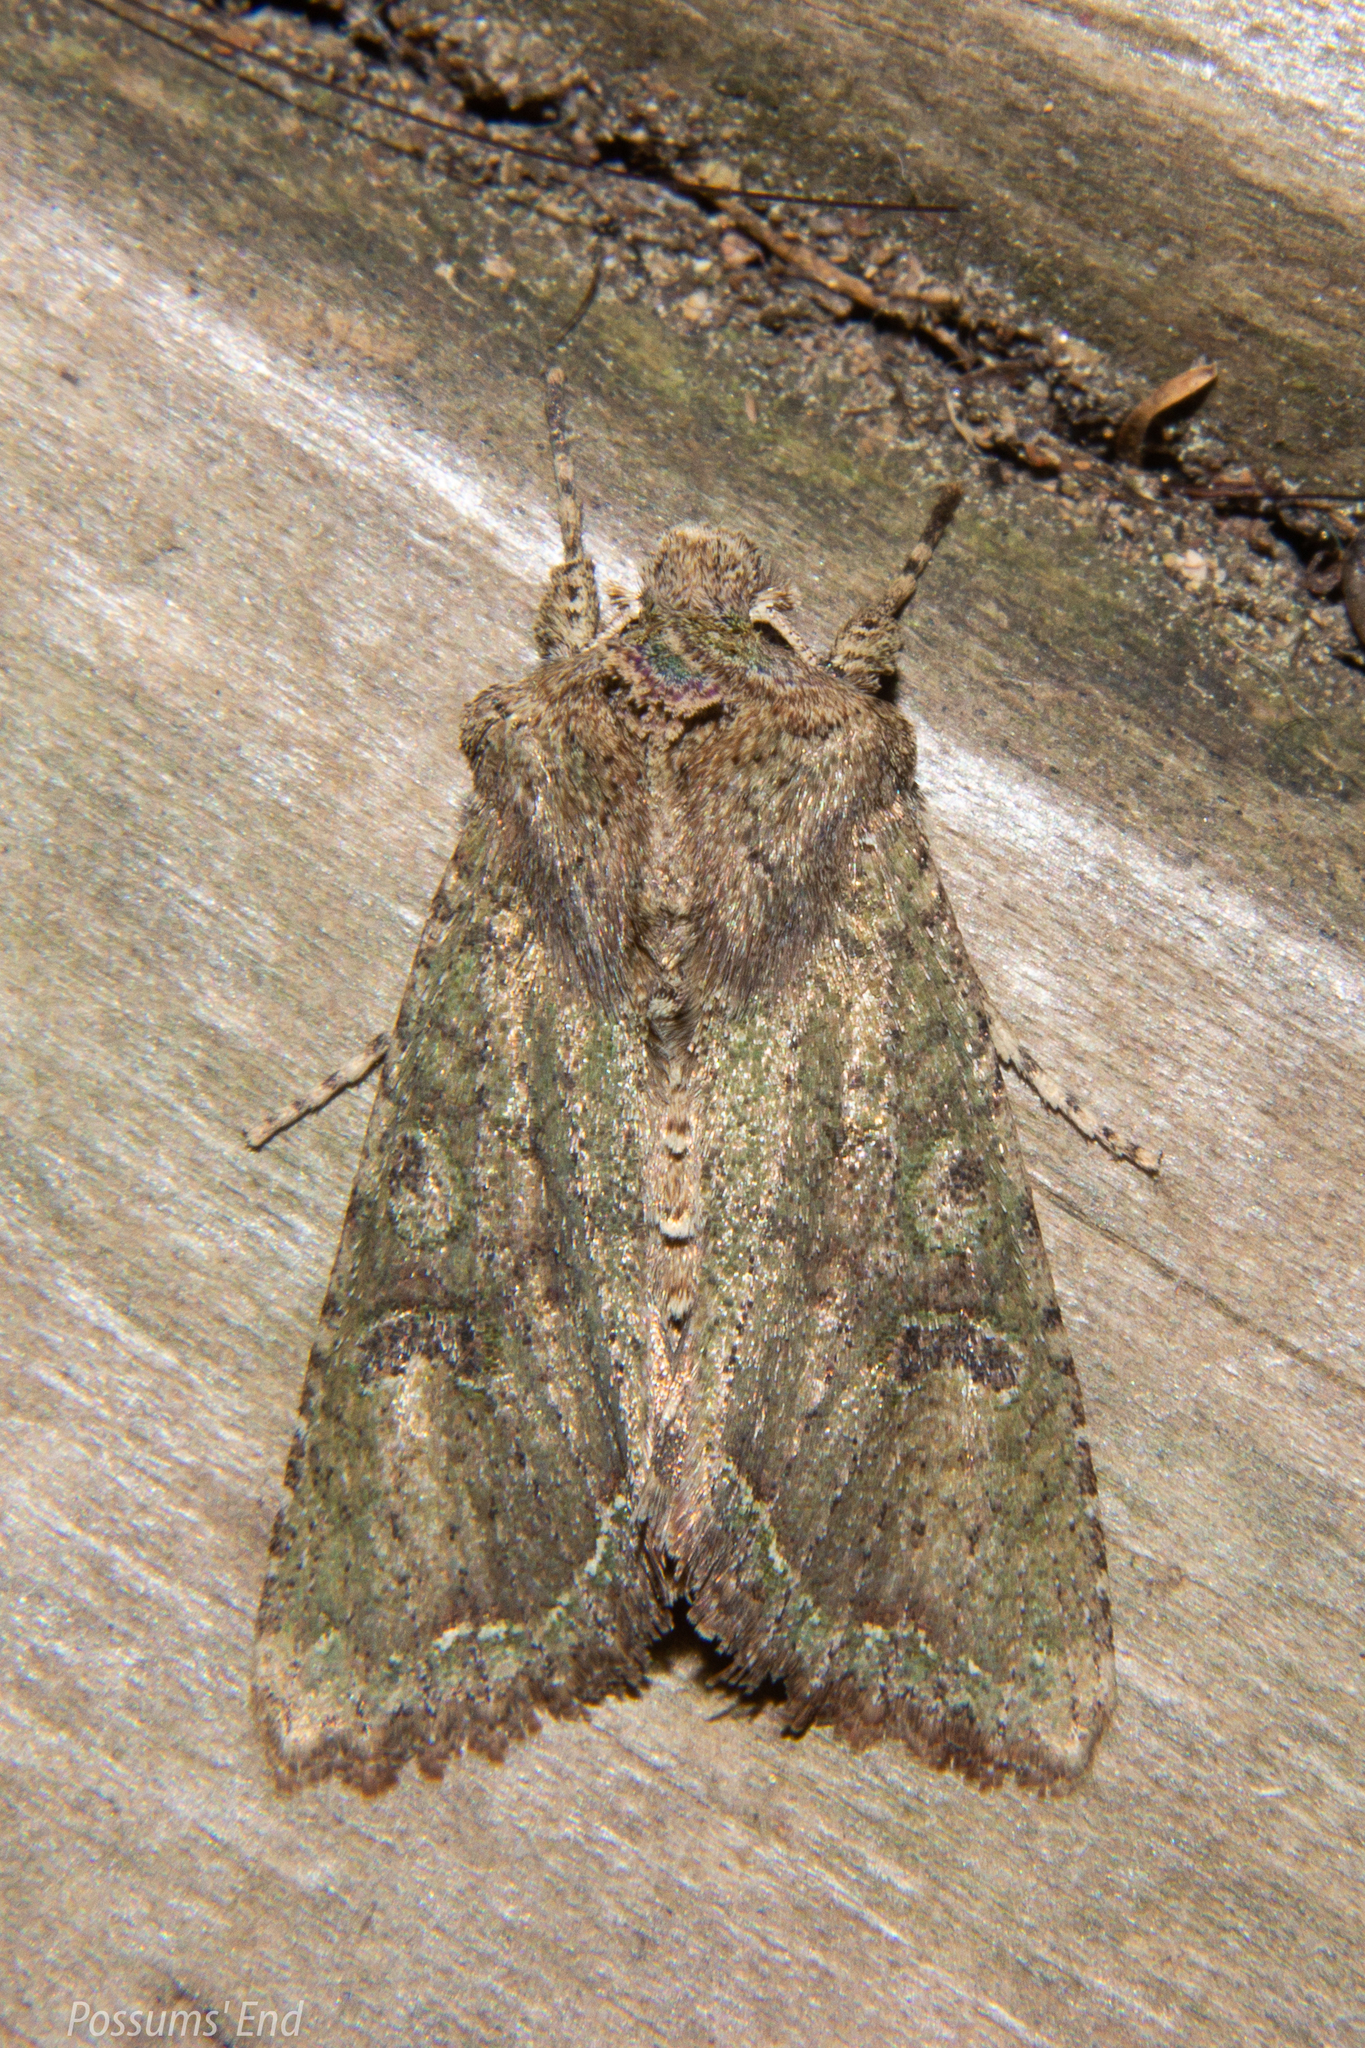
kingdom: Animalia
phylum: Arthropoda
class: Insecta
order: Lepidoptera
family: Noctuidae
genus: Meterana
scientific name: Meterana levis
